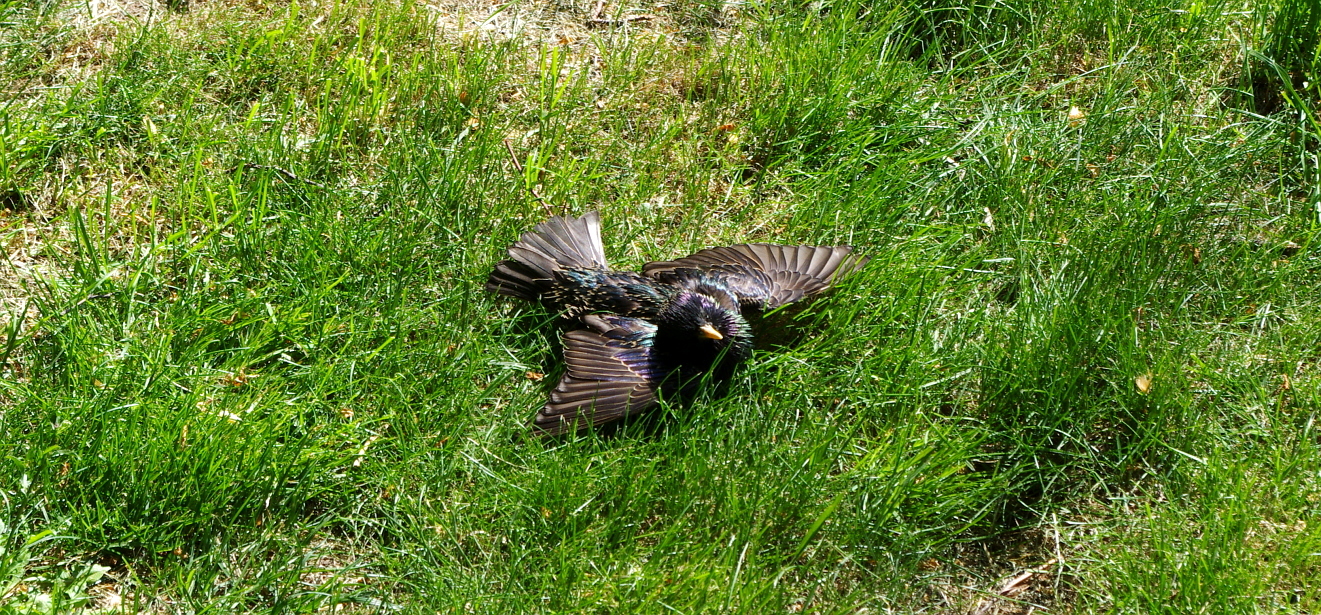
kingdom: Animalia
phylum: Chordata
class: Aves
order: Passeriformes
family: Sturnidae
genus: Sturnus
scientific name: Sturnus vulgaris
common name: Common starling
